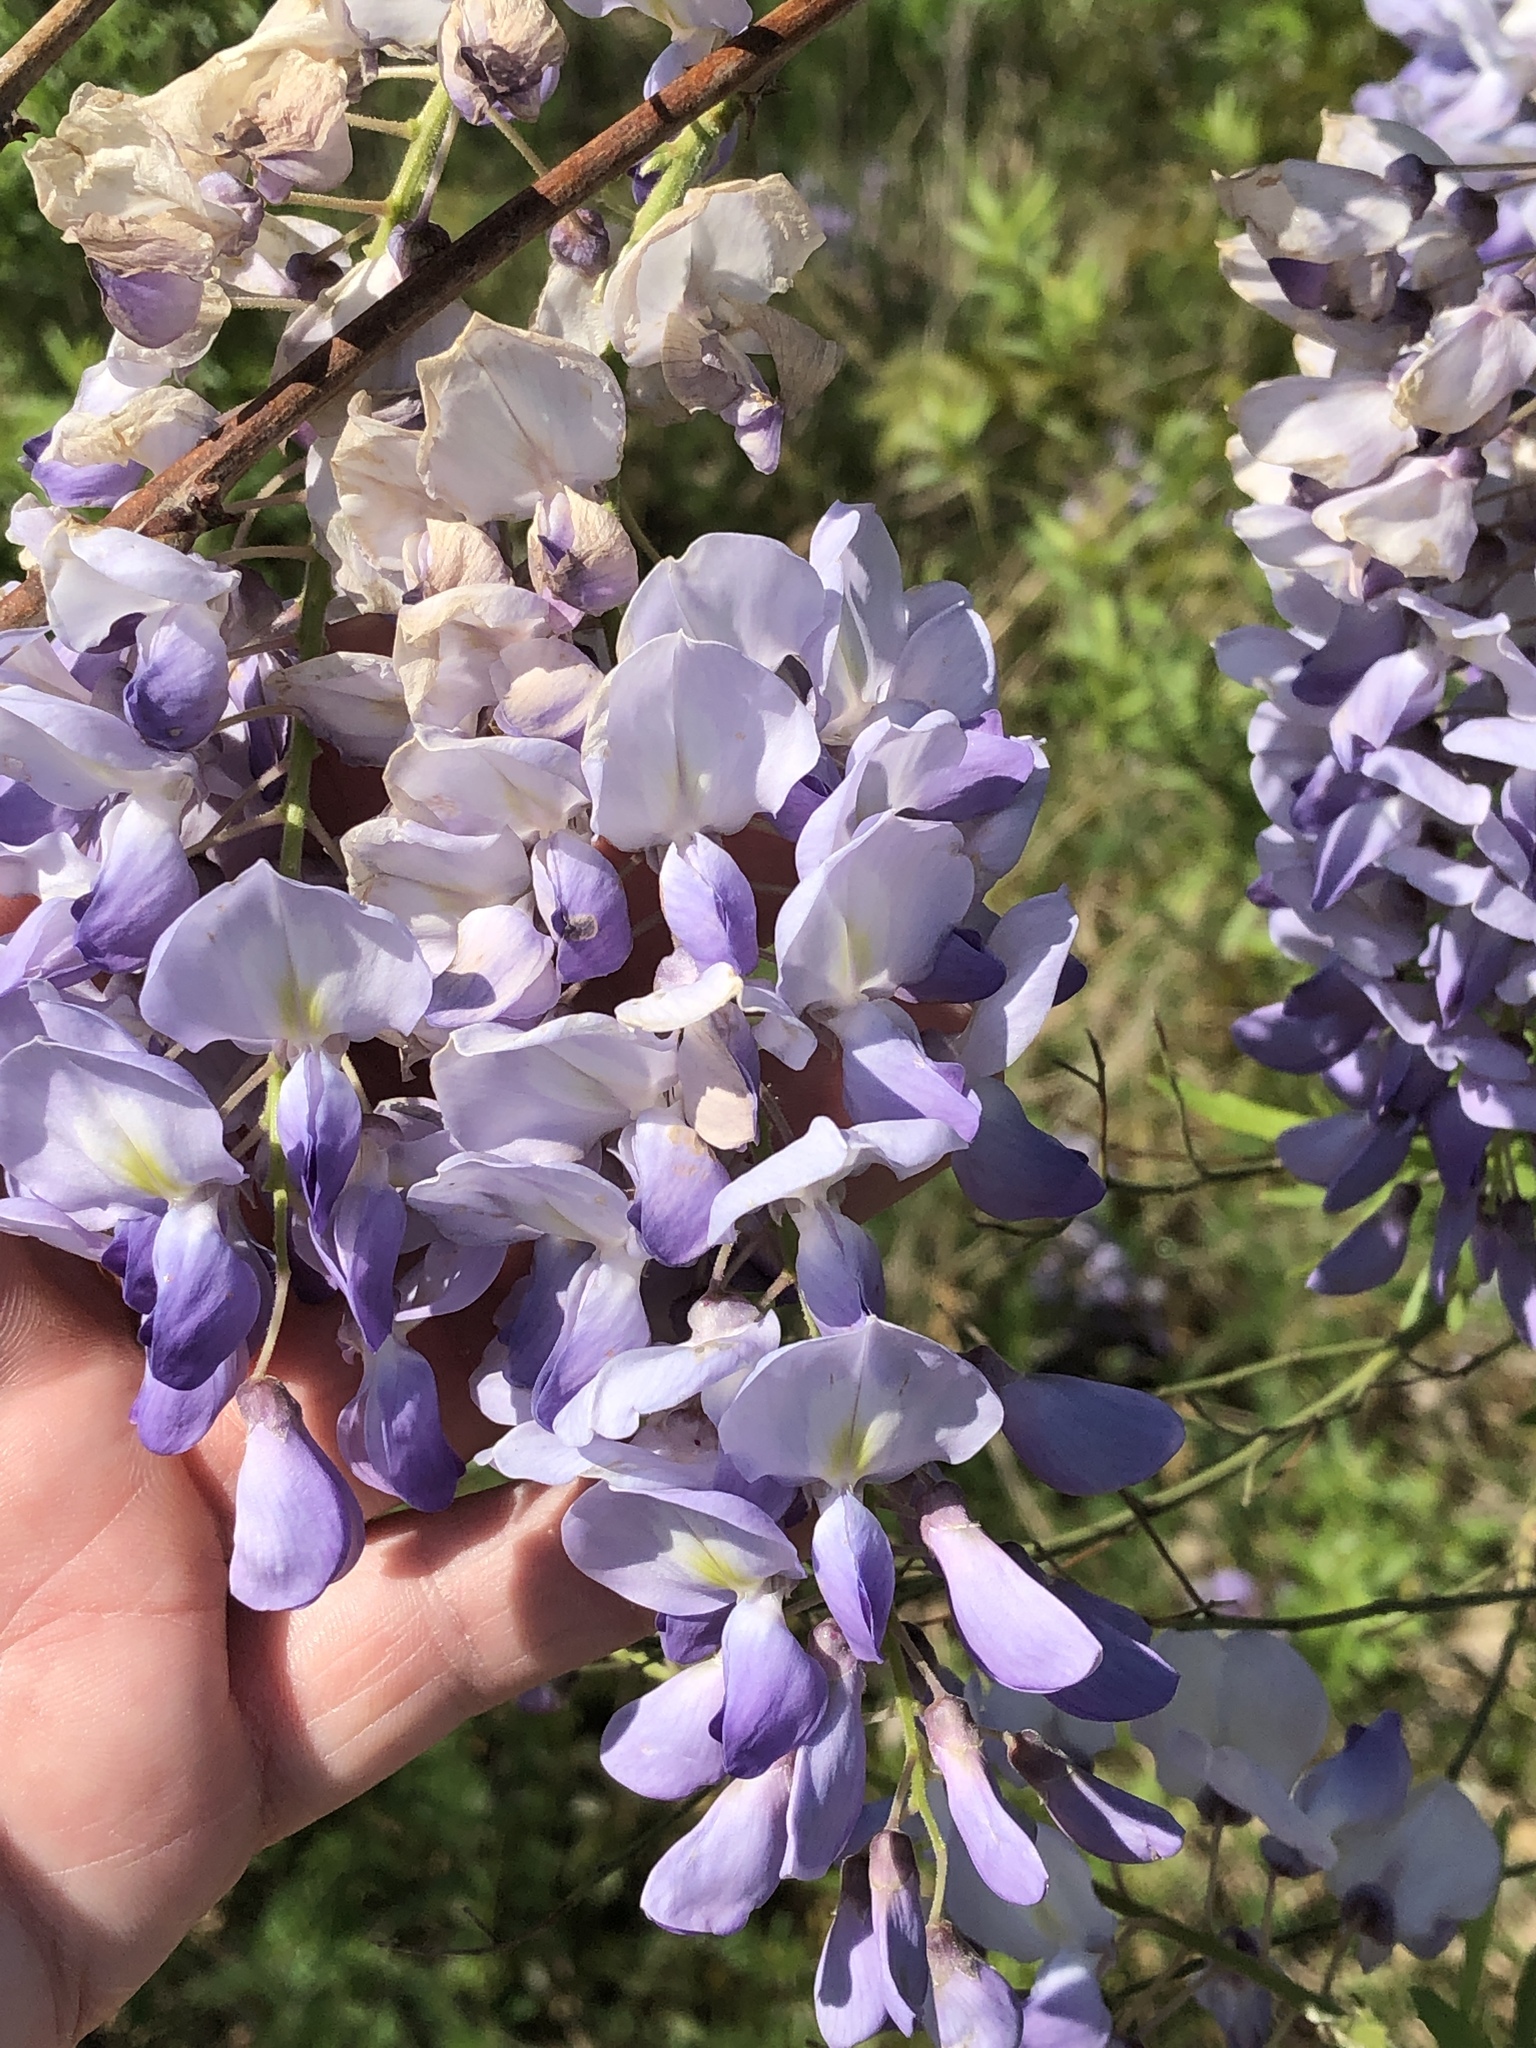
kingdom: Plantae
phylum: Tracheophyta
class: Magnoliopsida
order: Fabales
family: Fabaceae
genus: Wisteria
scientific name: Wisteria sinensis
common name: Chinese wisteria
